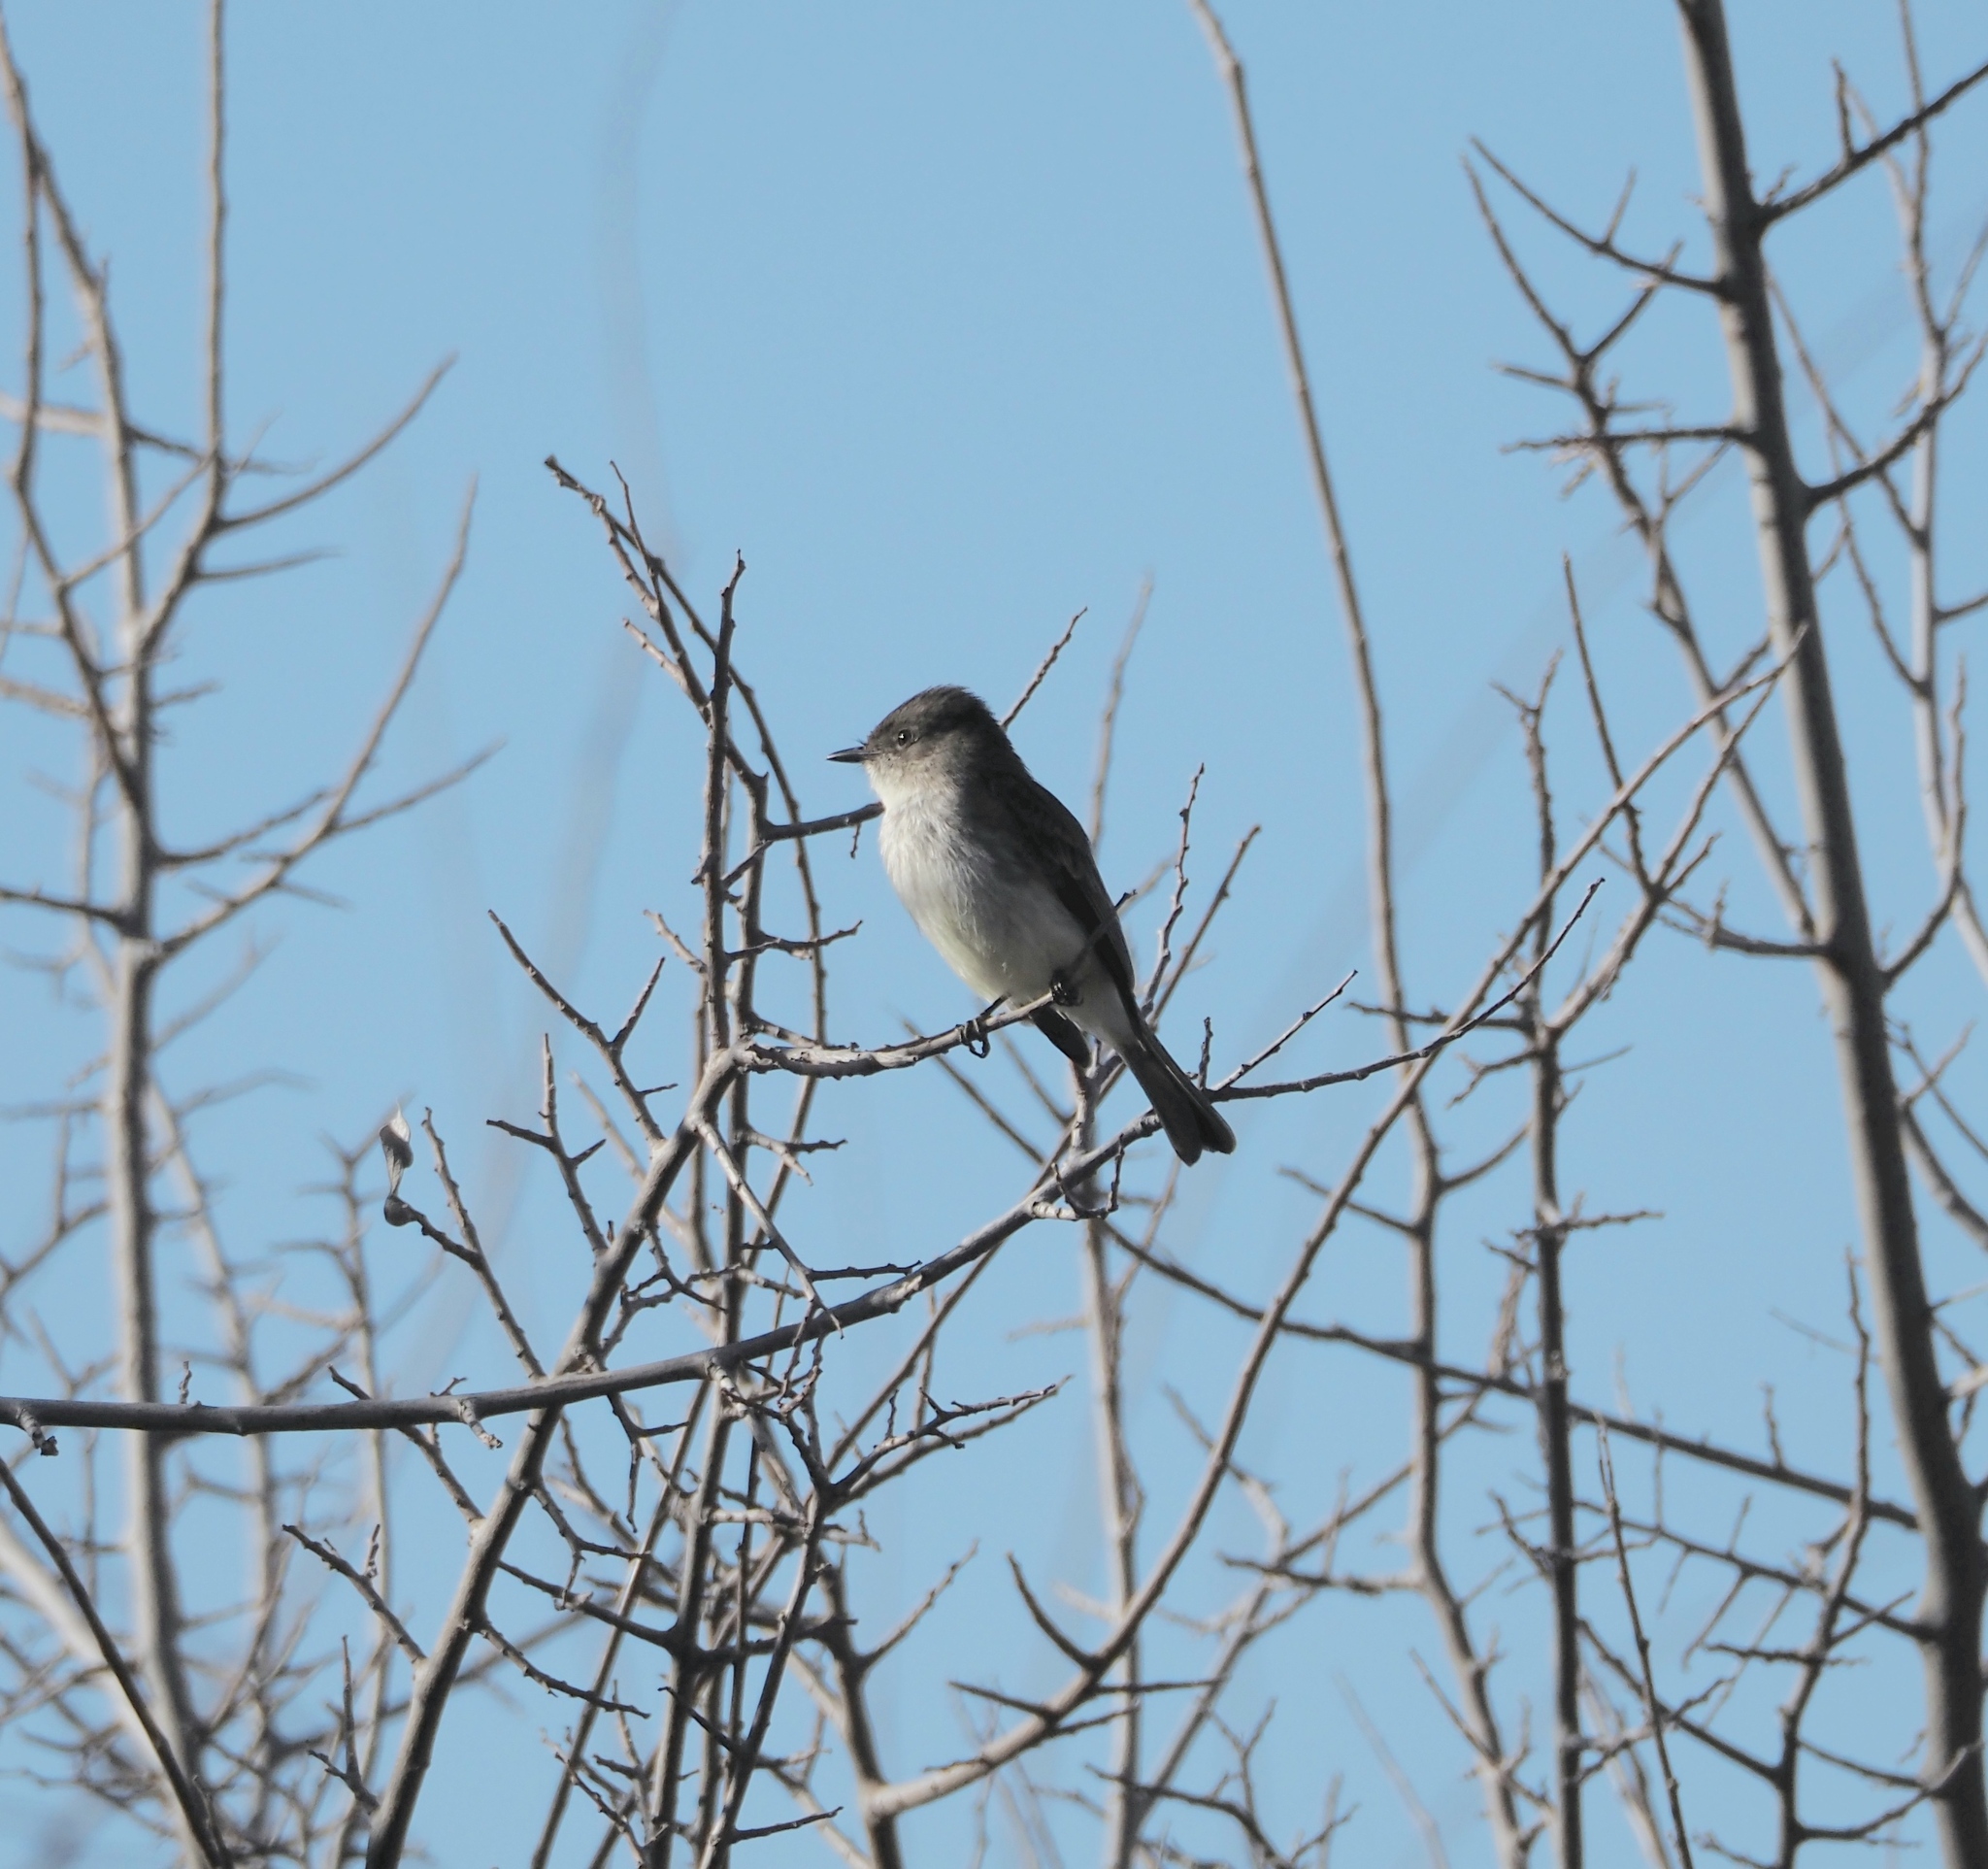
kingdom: Animalia
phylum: Chordata
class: Aves
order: Passeriformes
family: Tyrannidae
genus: Sayornis
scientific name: Sayornis phoebe
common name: Eastern phoebe
